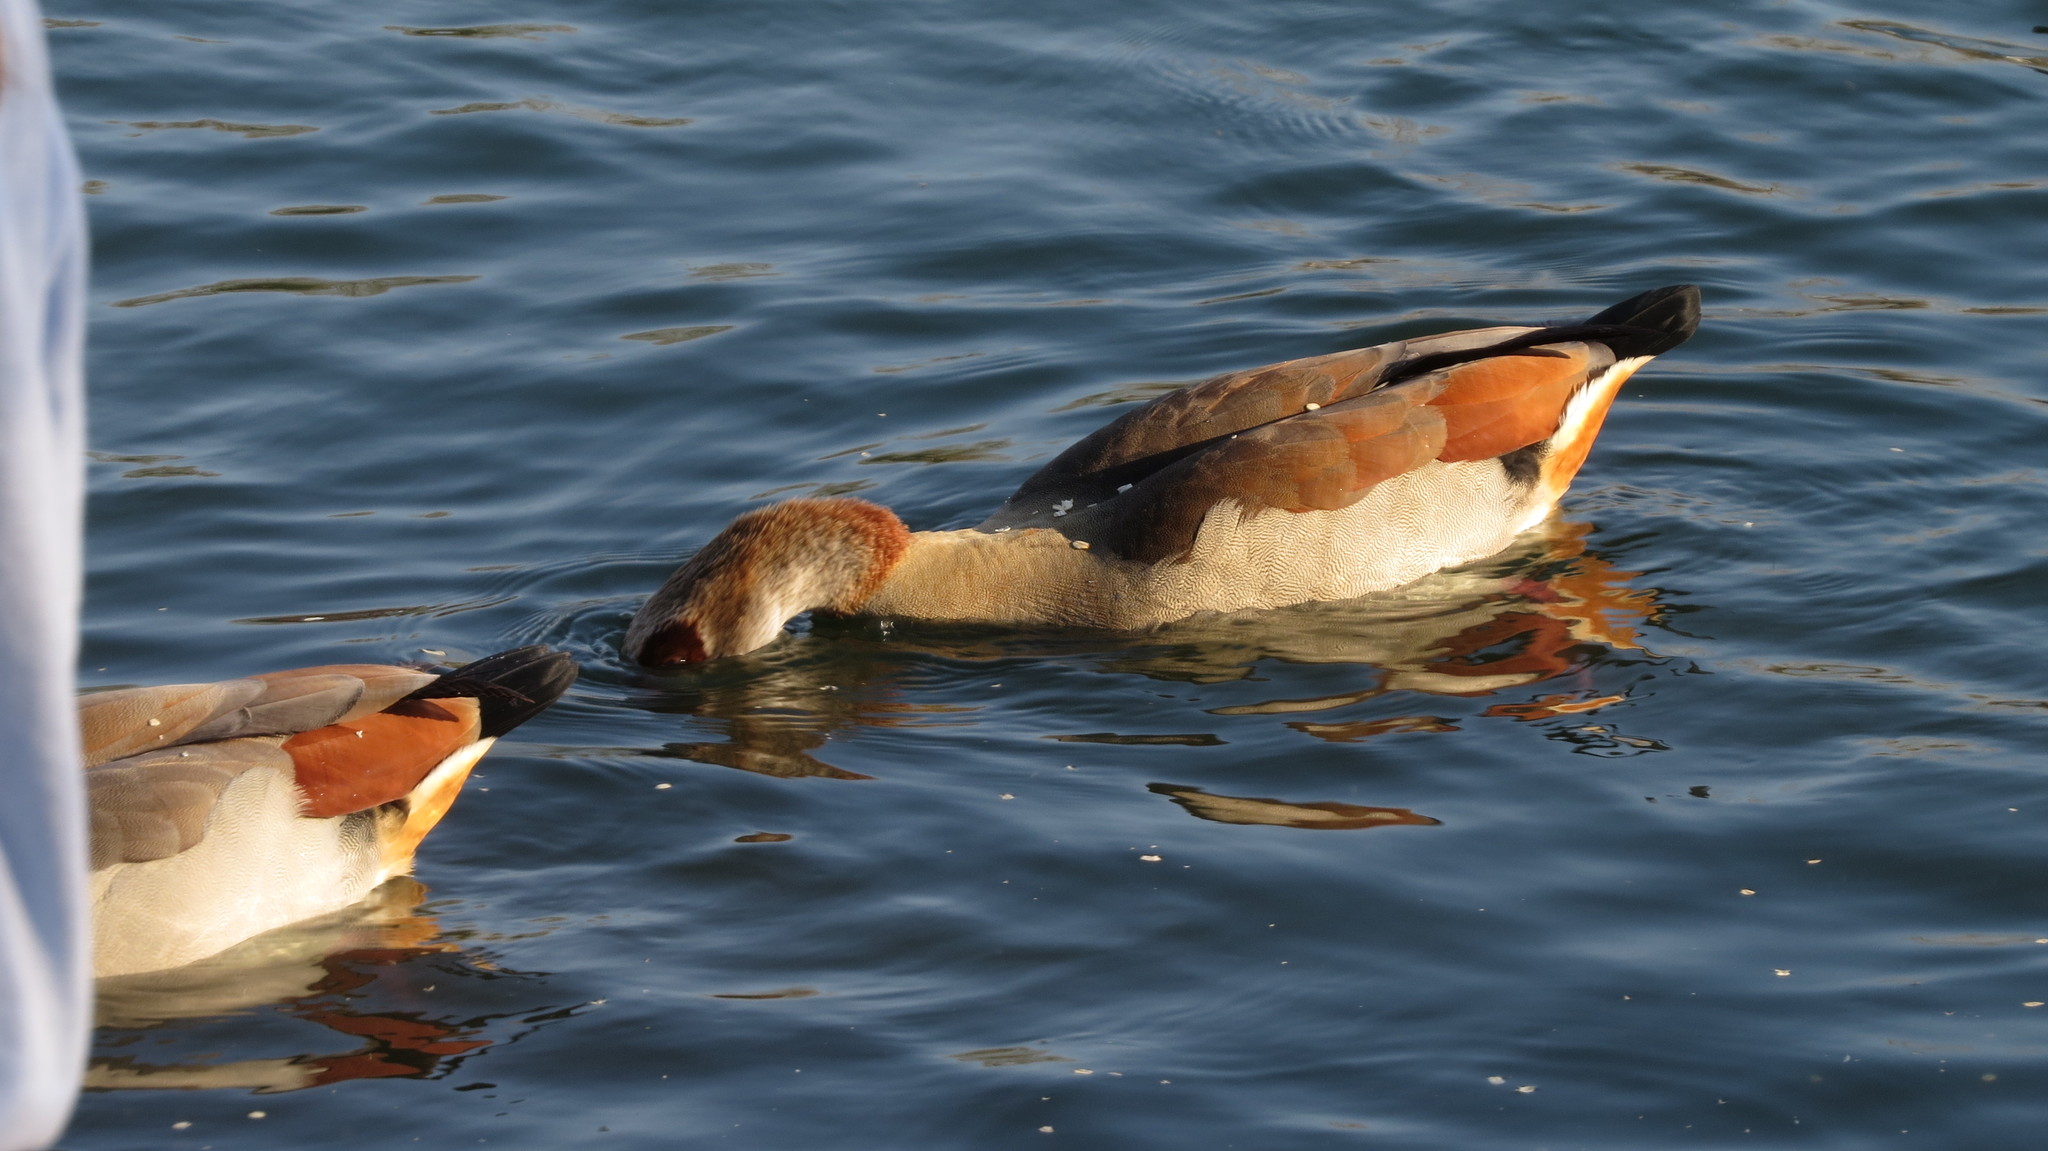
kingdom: Animalia
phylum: Chordata
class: Aves
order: Anseriformes
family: Anatidae
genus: Alopochen
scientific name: Alopochen aegyptiaca
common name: Egyptian goose
